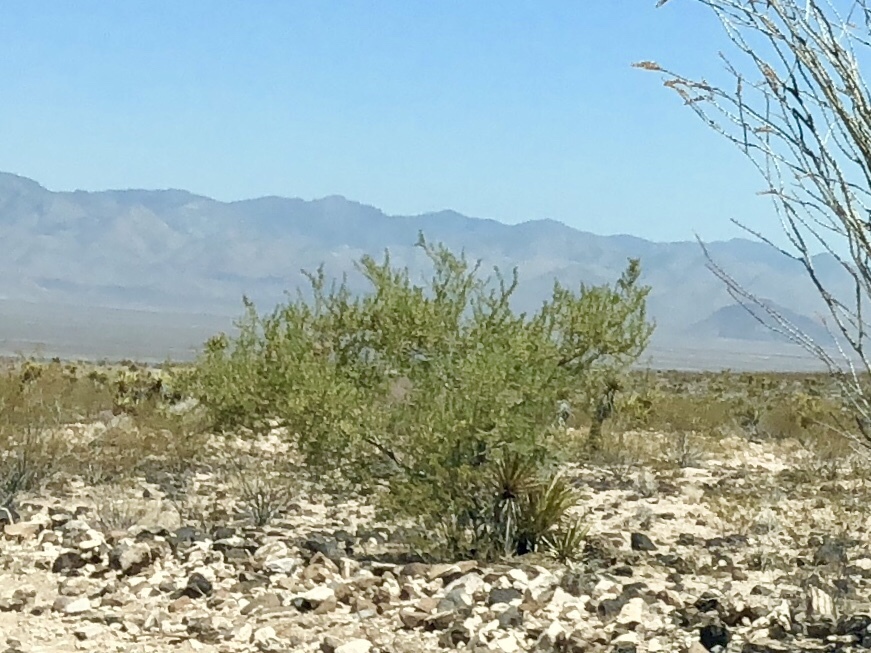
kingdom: Plantae
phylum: Tracheophyta
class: Magnoliopsida
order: Zygophyllales
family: Zygophyllaceae
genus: Larrea
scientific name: Larrea tridentata
